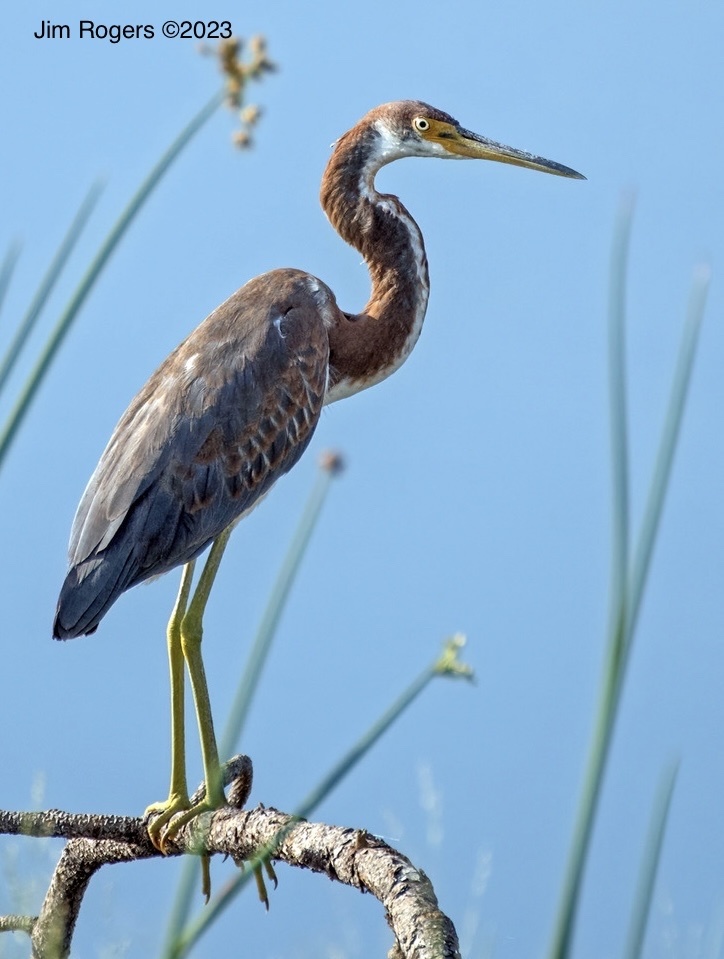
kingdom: Animalia
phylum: Chordata
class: Aves
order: Pelecaniformes
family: Ardeidae
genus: Egretta
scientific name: Egretta tricolor
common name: Tricolored heron
